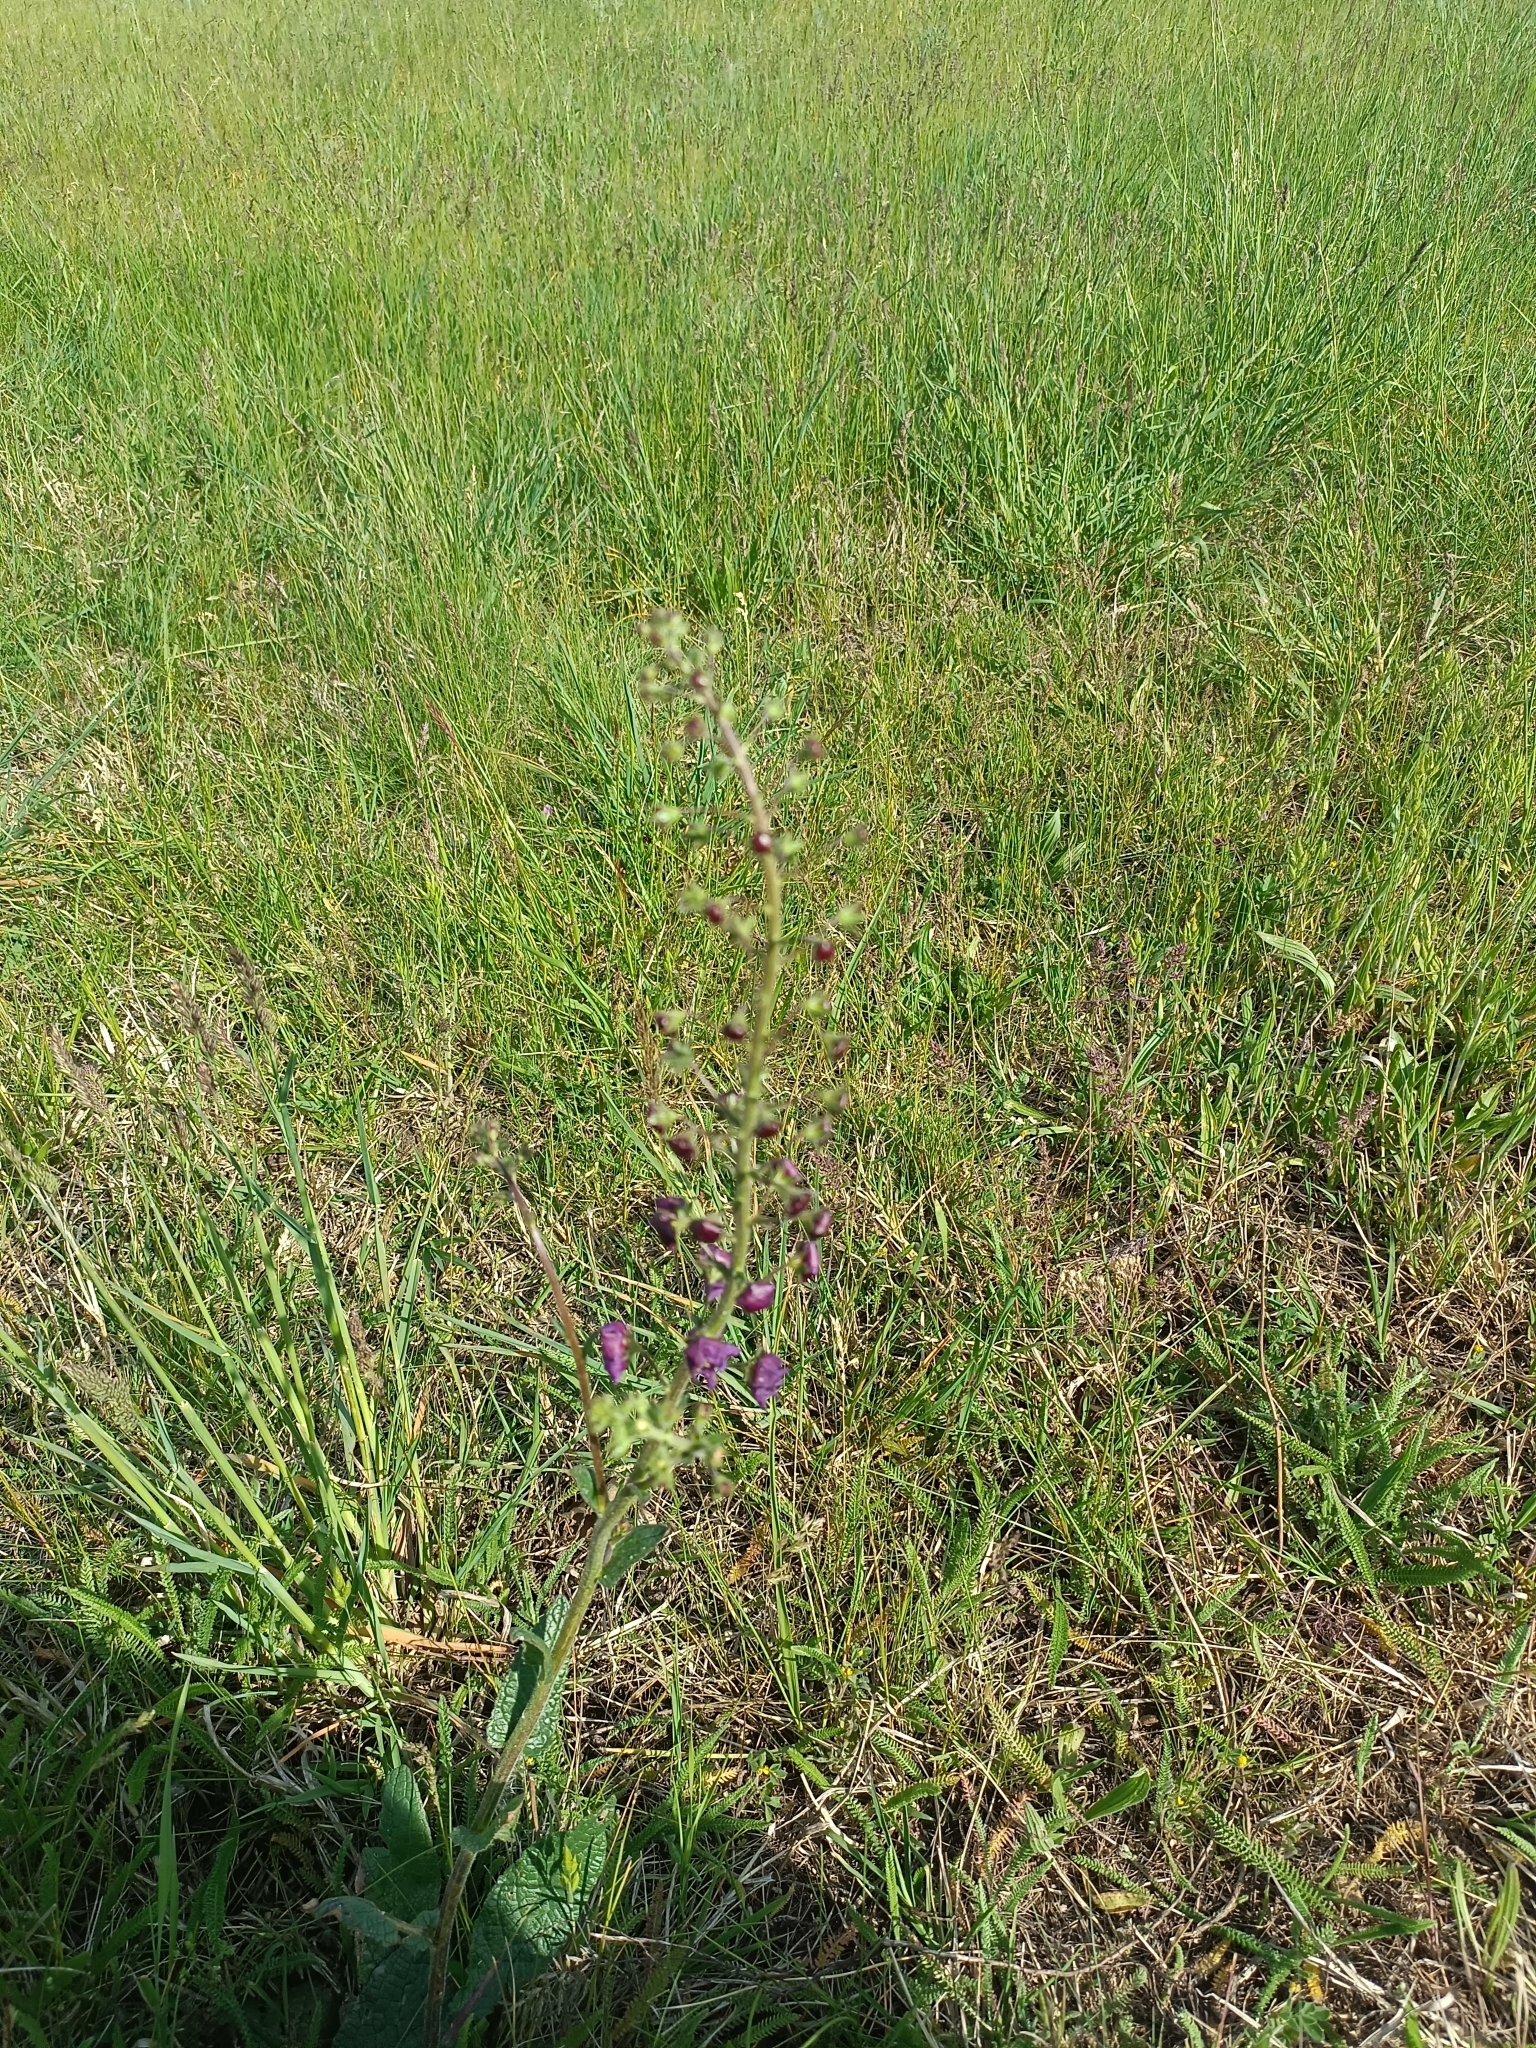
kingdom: Plantae
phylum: Tracheophyta
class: Magnoliopsida
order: Lamiales
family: Scrophulariaceae
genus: Verbascum
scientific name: Verbascum phoeniceum
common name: Purple mullein
